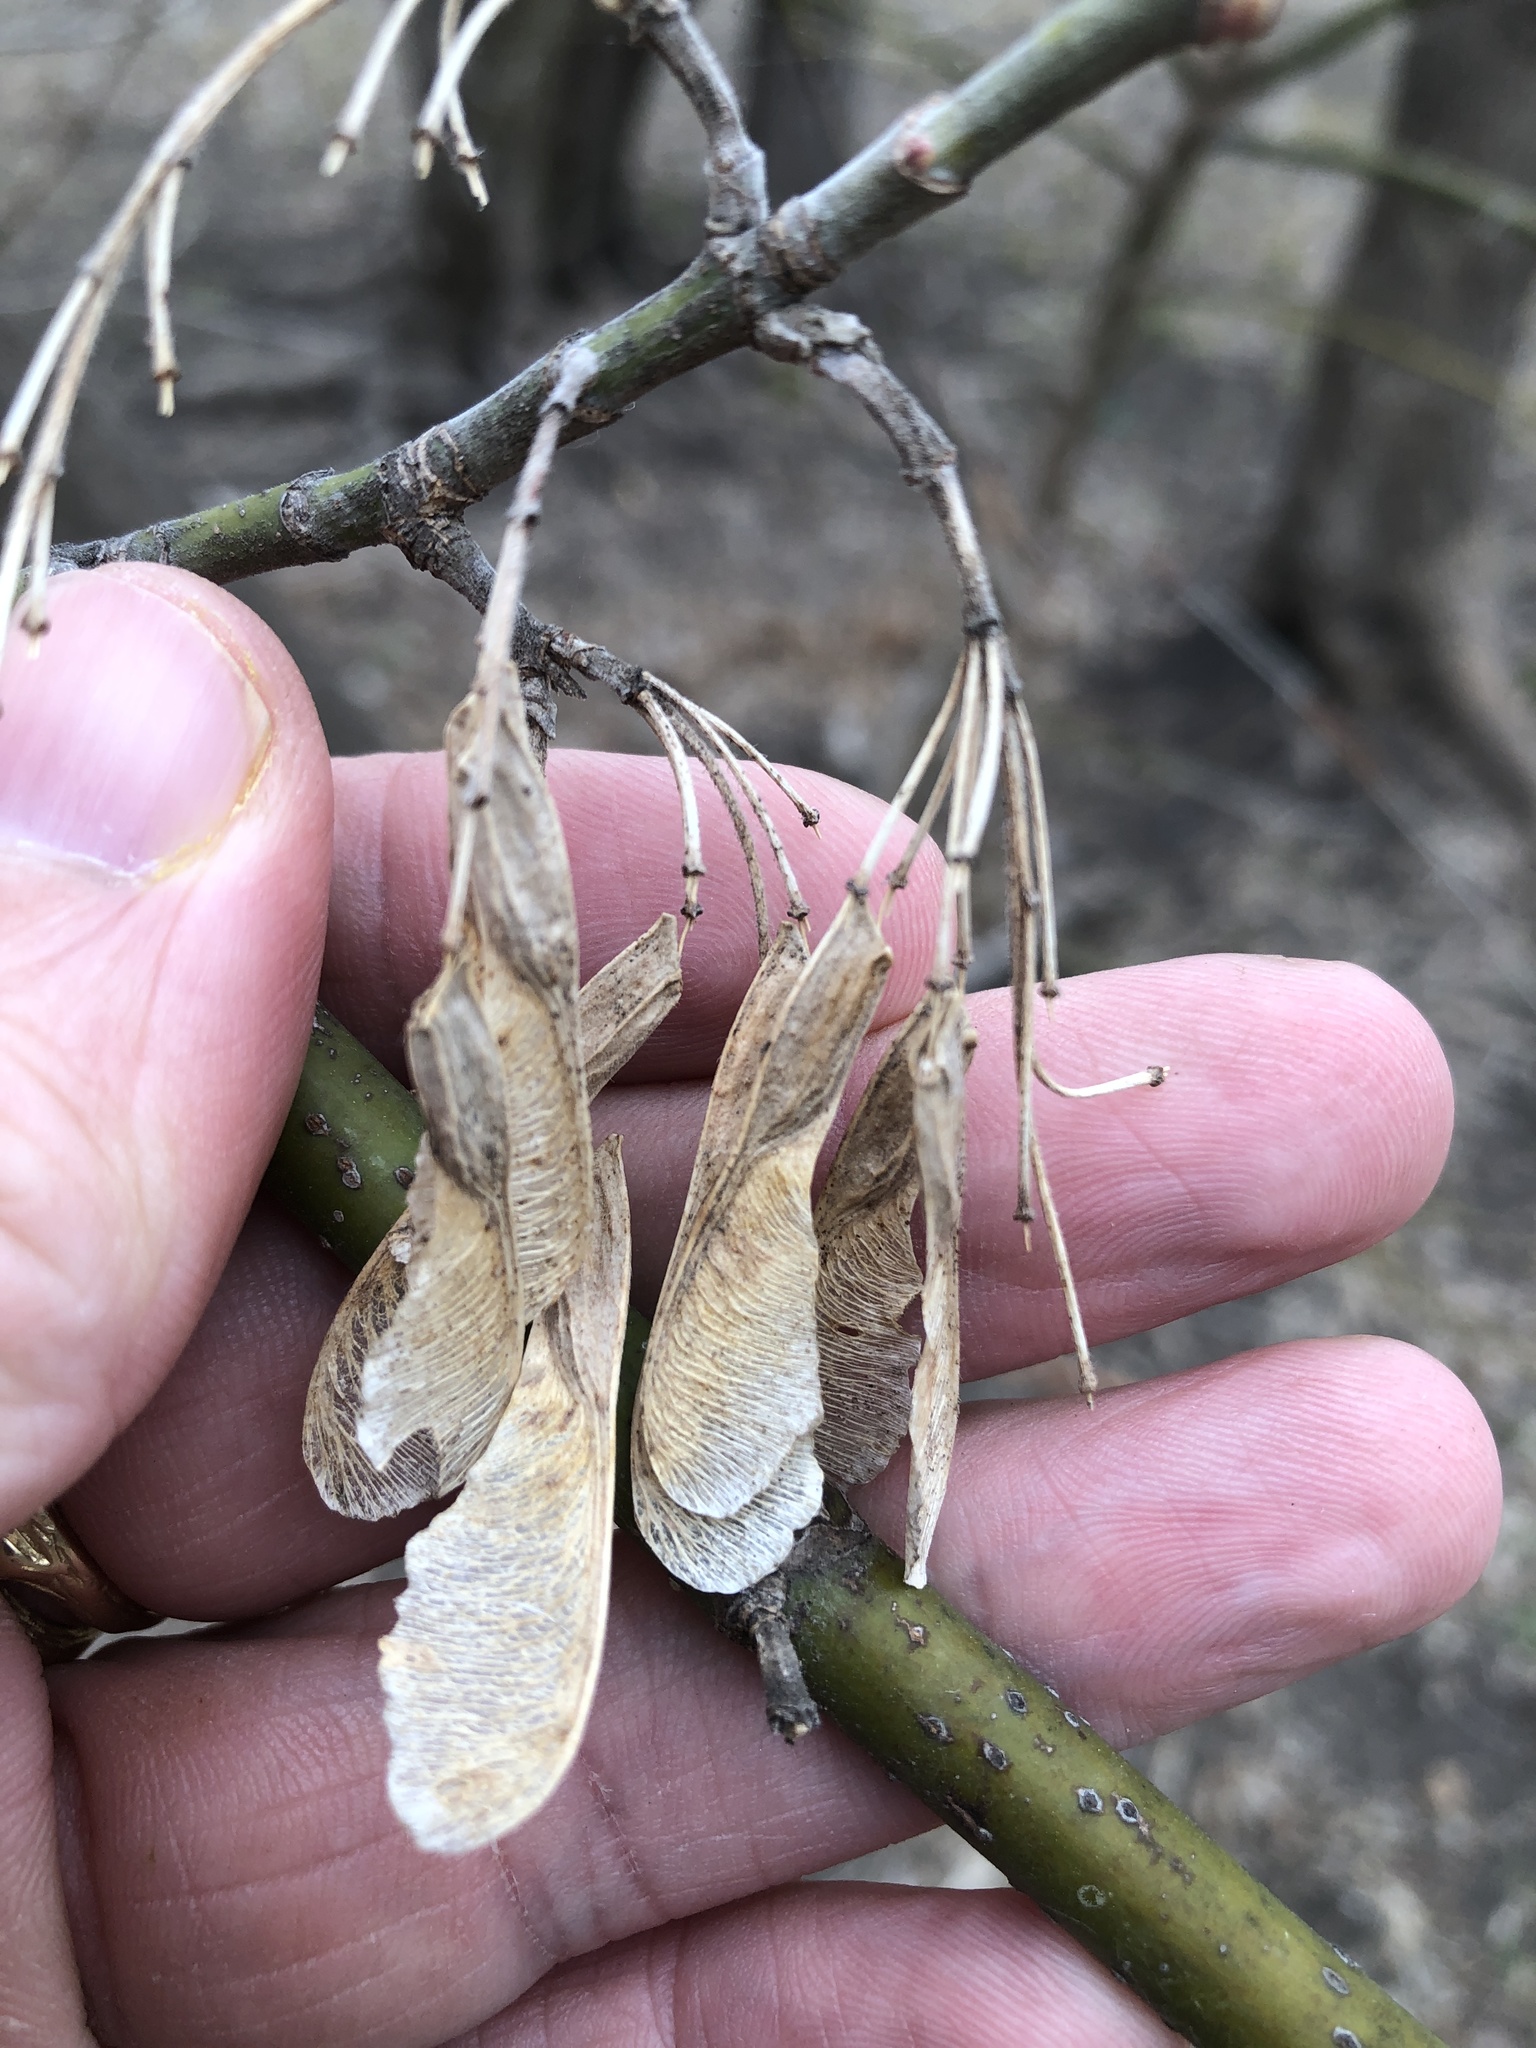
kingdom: Plantae
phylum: Tracheophyta
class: Magnoliopsida
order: Sapindales
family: Sapindaceae
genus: Acer
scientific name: Acer negundo
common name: Ashleaf maple
